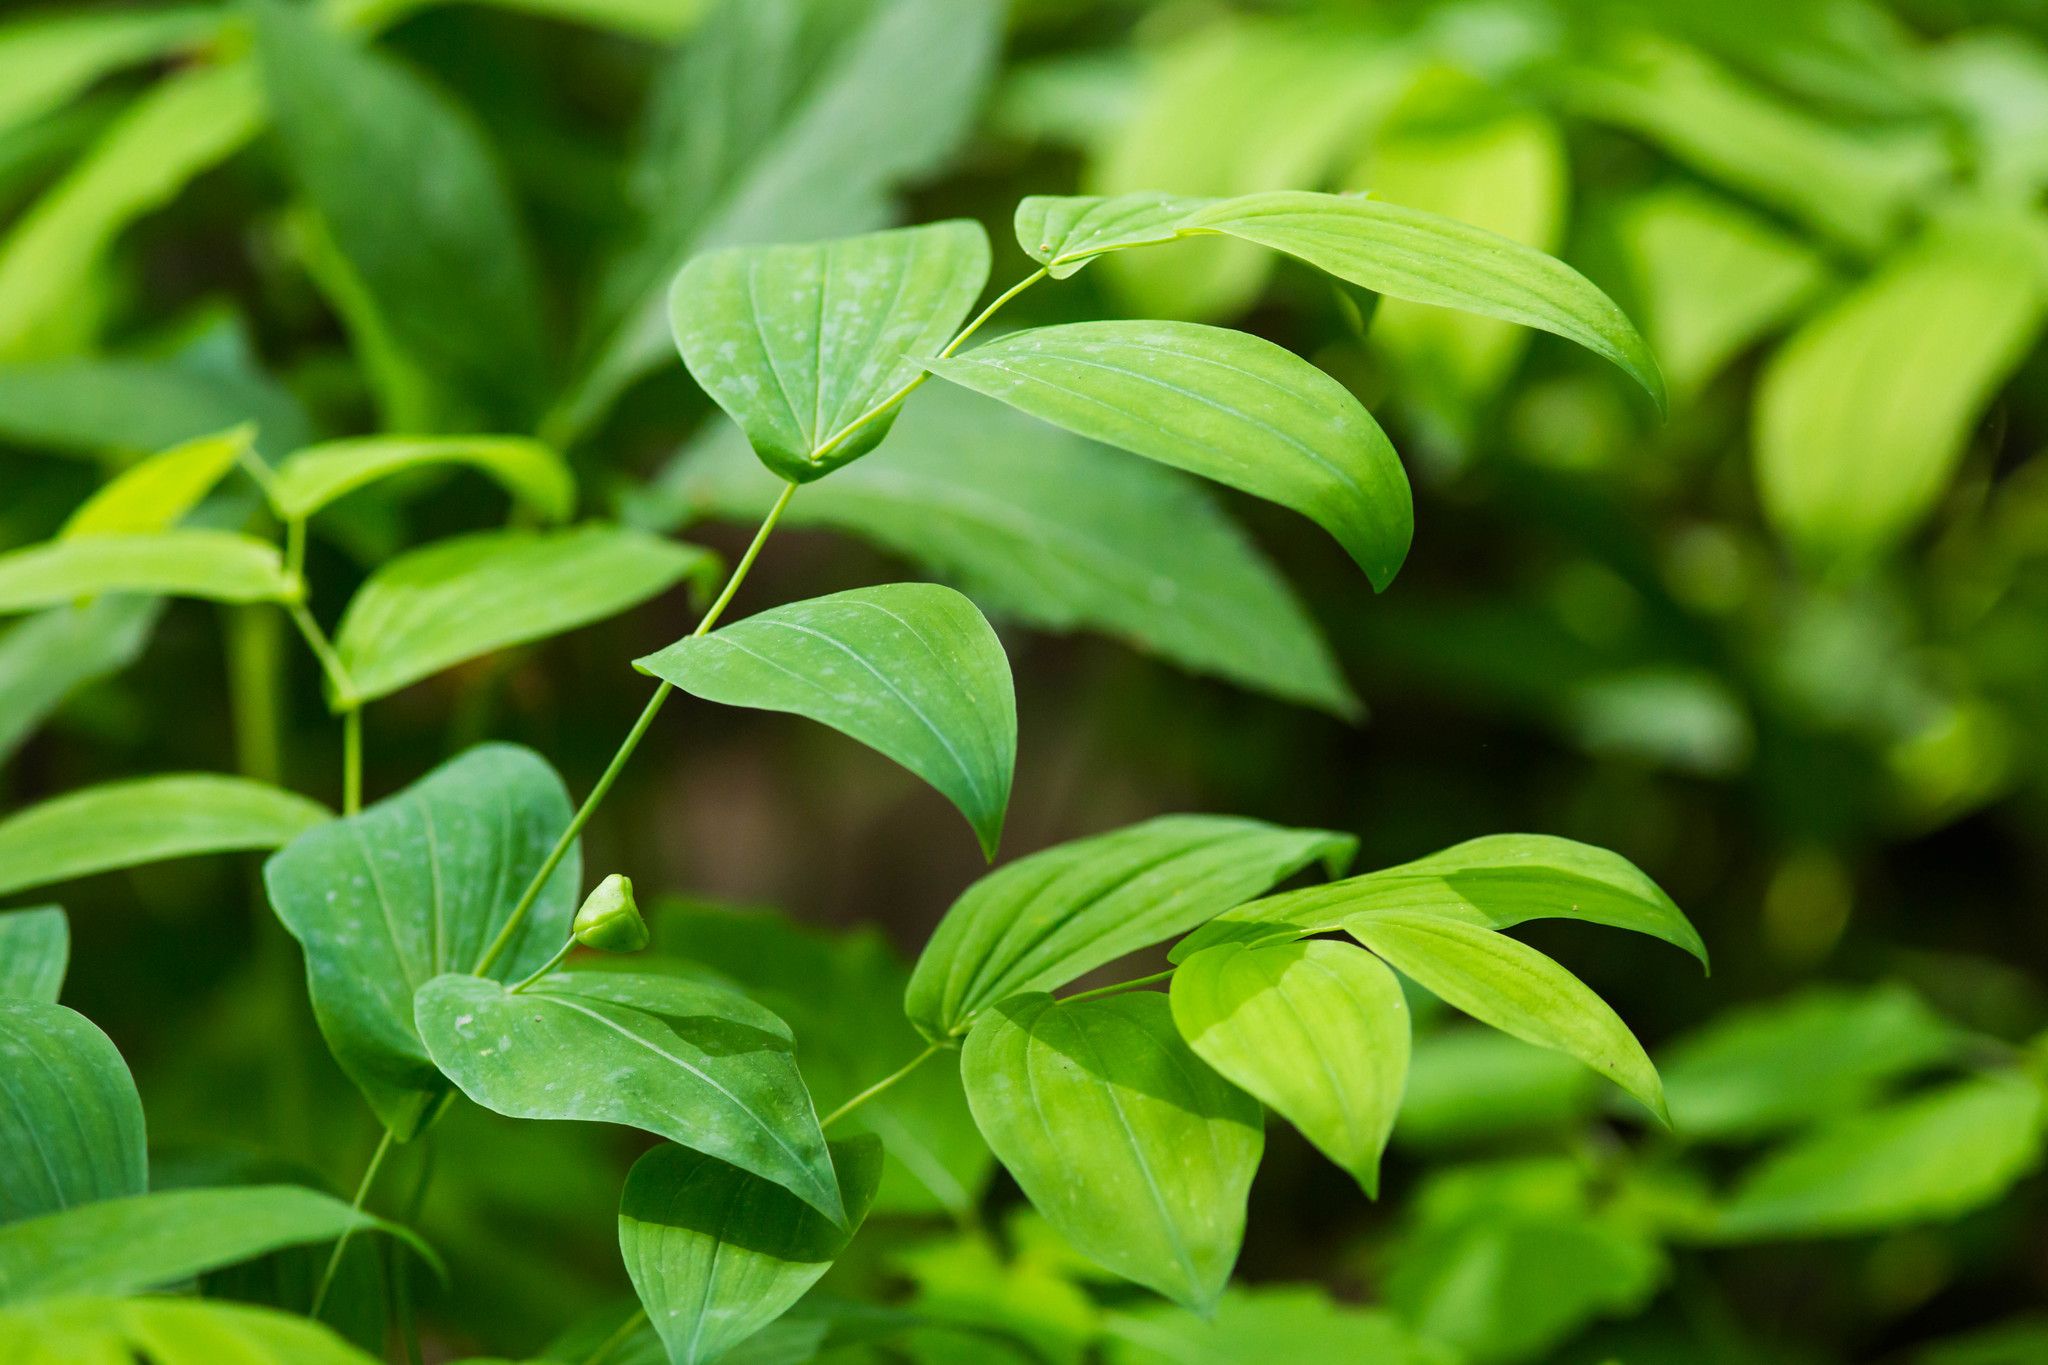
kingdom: Plantae
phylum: Tracheophyta
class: Liliopsida
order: Liliales
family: Colchicaceae
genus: Uvularia
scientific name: Uvularia grandiflora
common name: Bellwort
